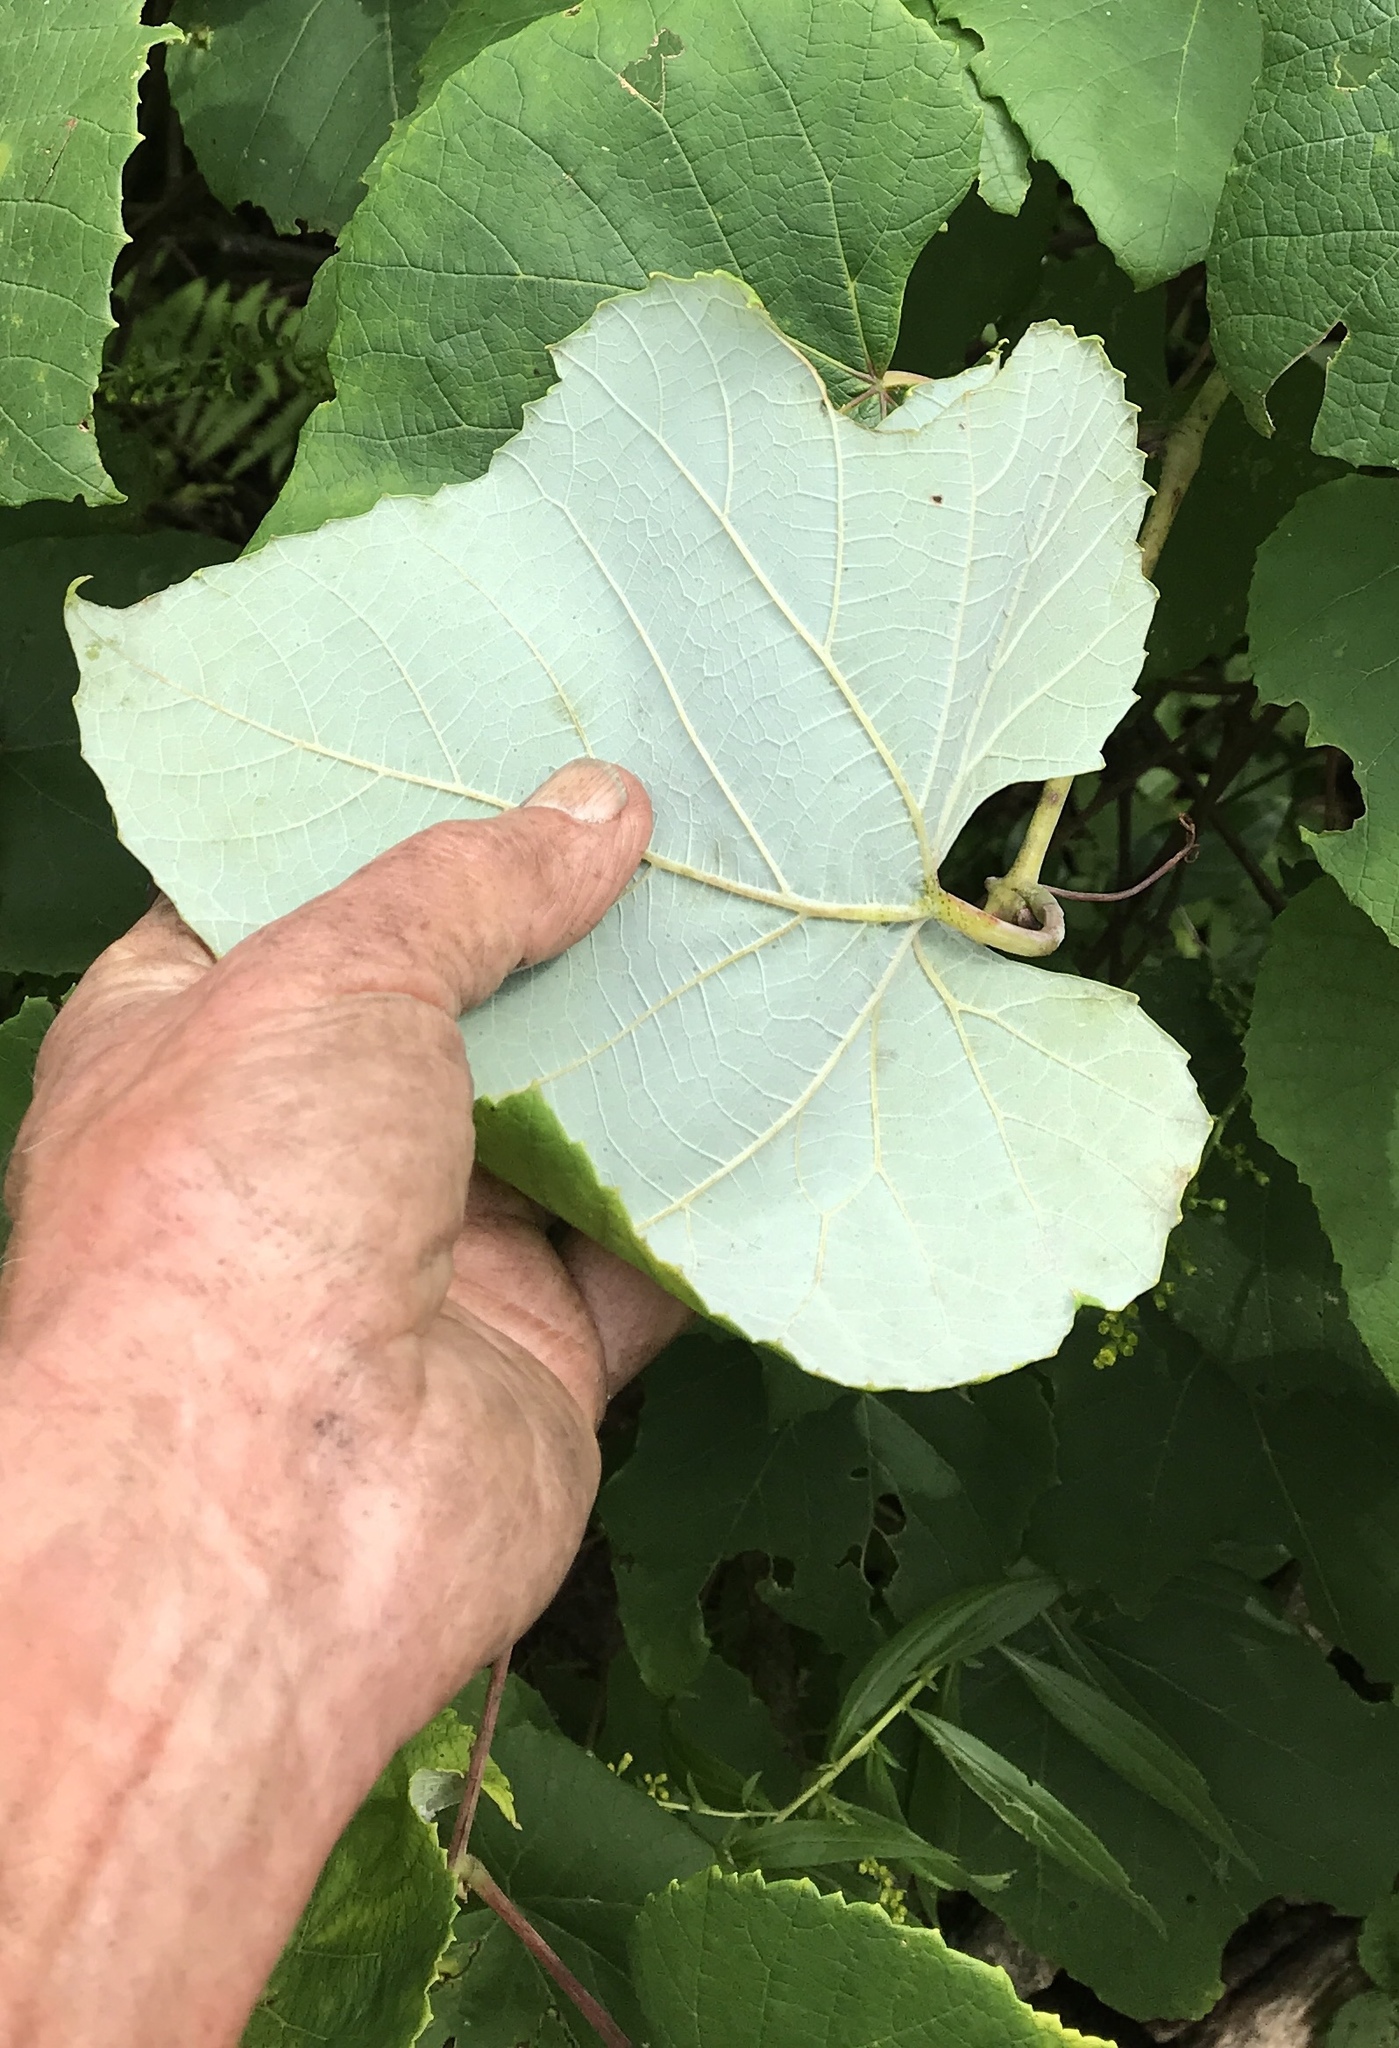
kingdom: Plantae
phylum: Tracheophyta
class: Magnoliopsida
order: Vitales
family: Vitaceae
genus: Vitis
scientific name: Vitis aestivalis
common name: Pigeon grape
